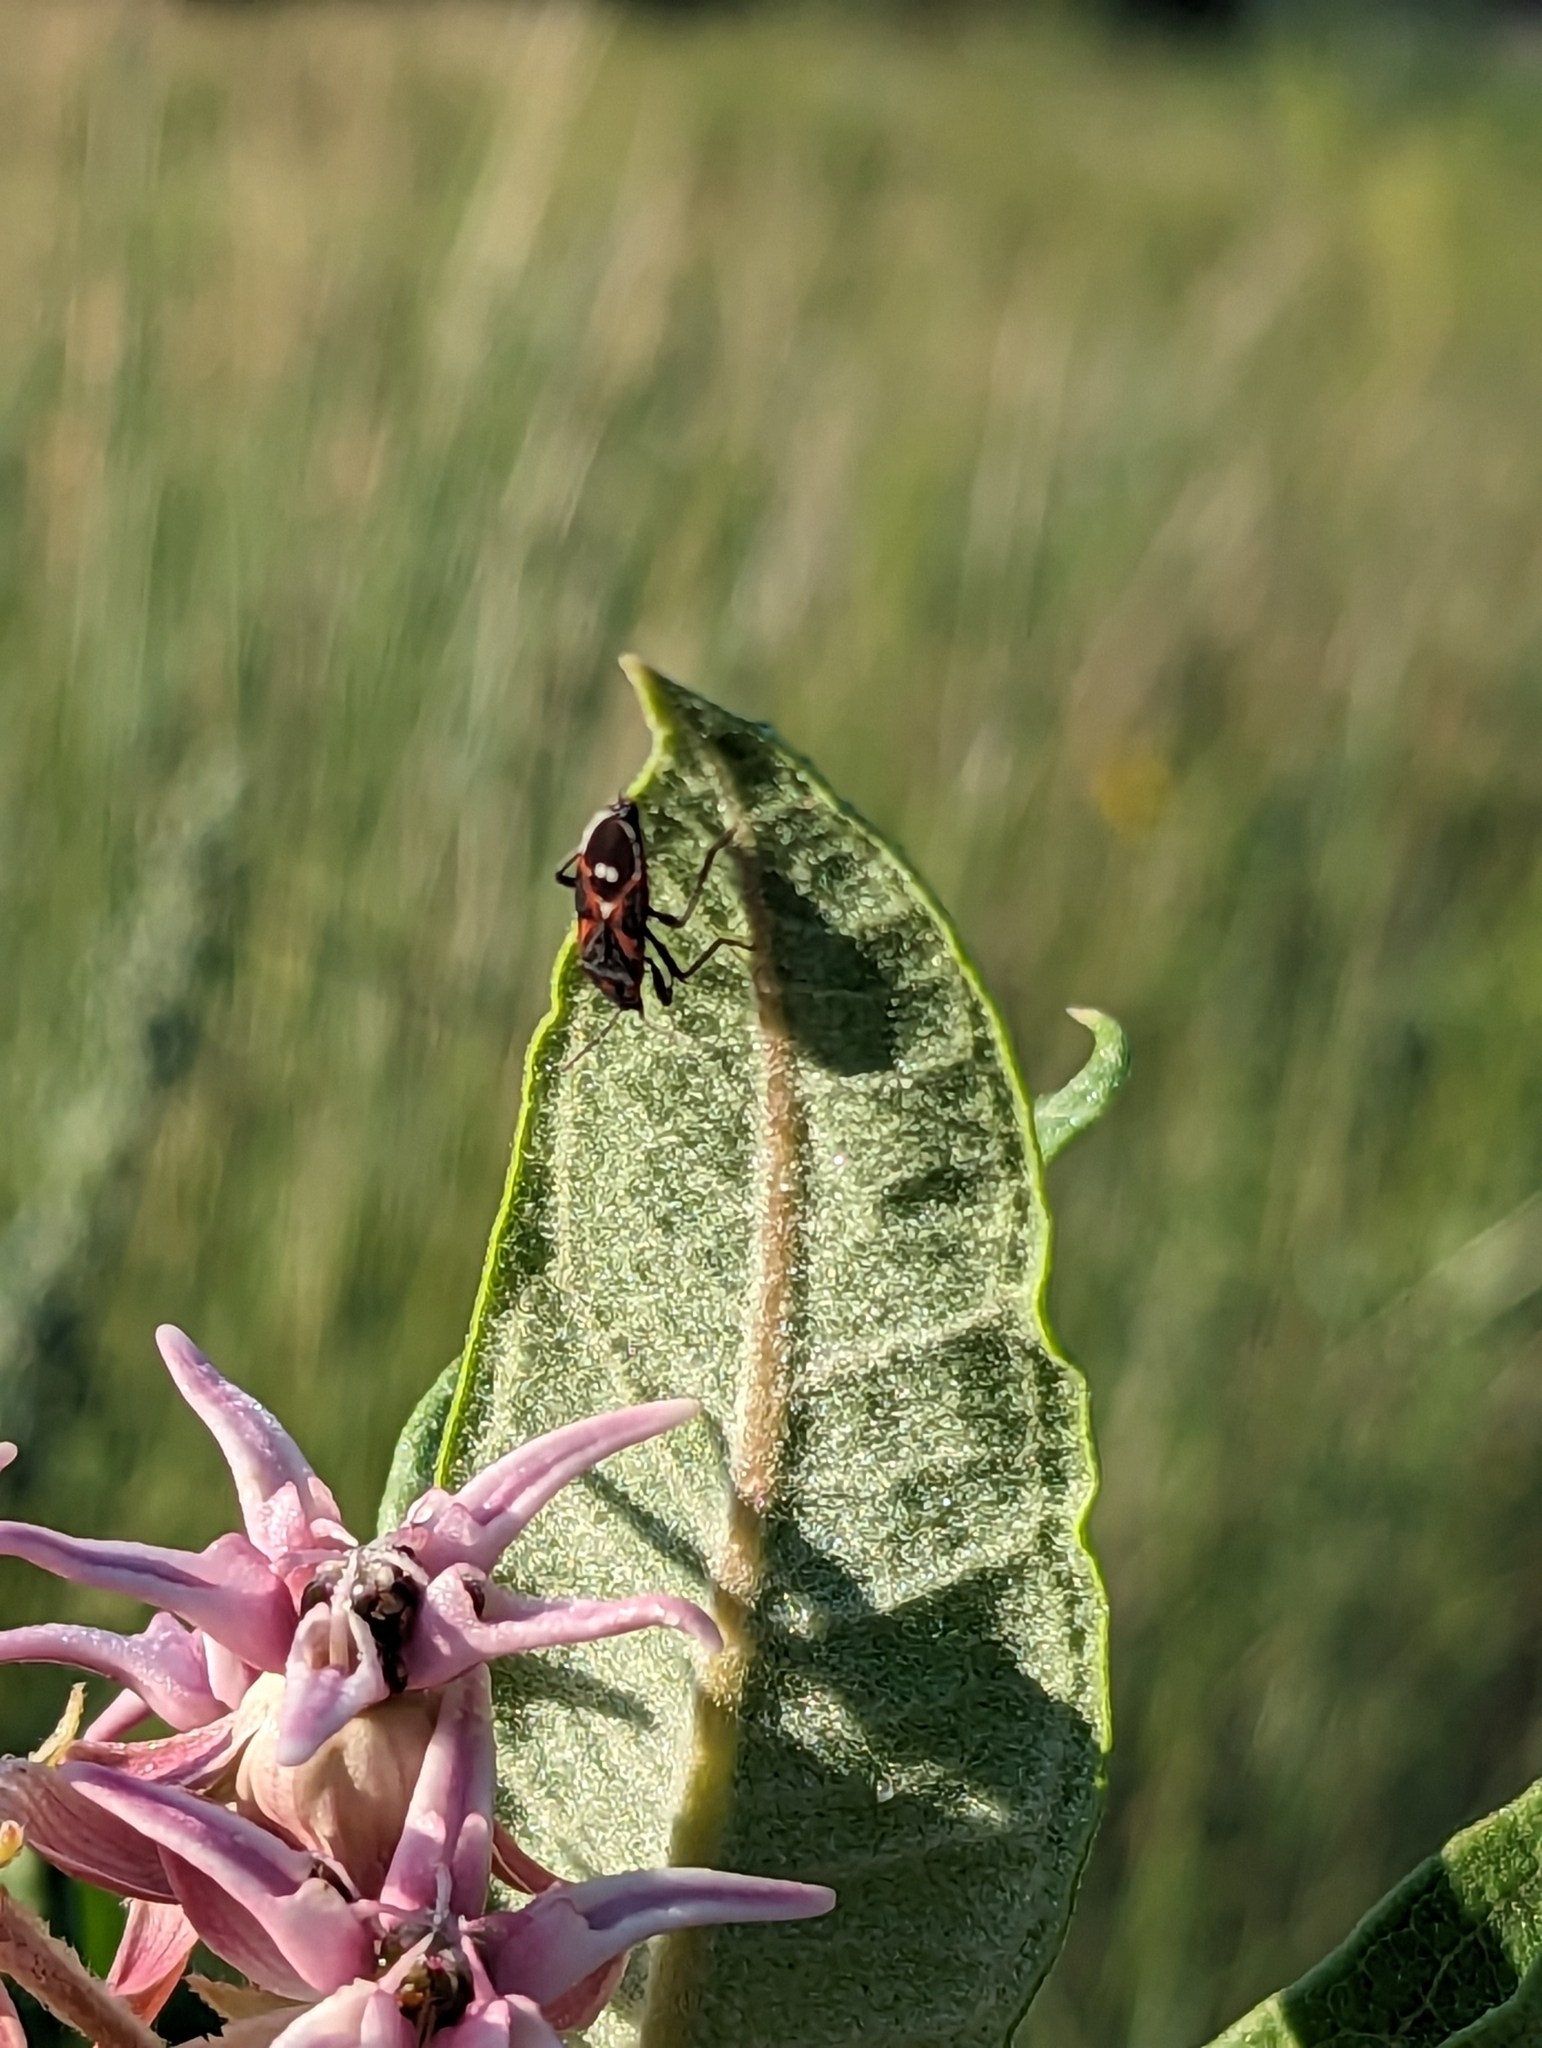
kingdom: Animalia
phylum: Arthropoda
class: Insecta
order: Hemiptera
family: Lygaeidae
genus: Lygaeus
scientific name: Lygaeus kalmii
